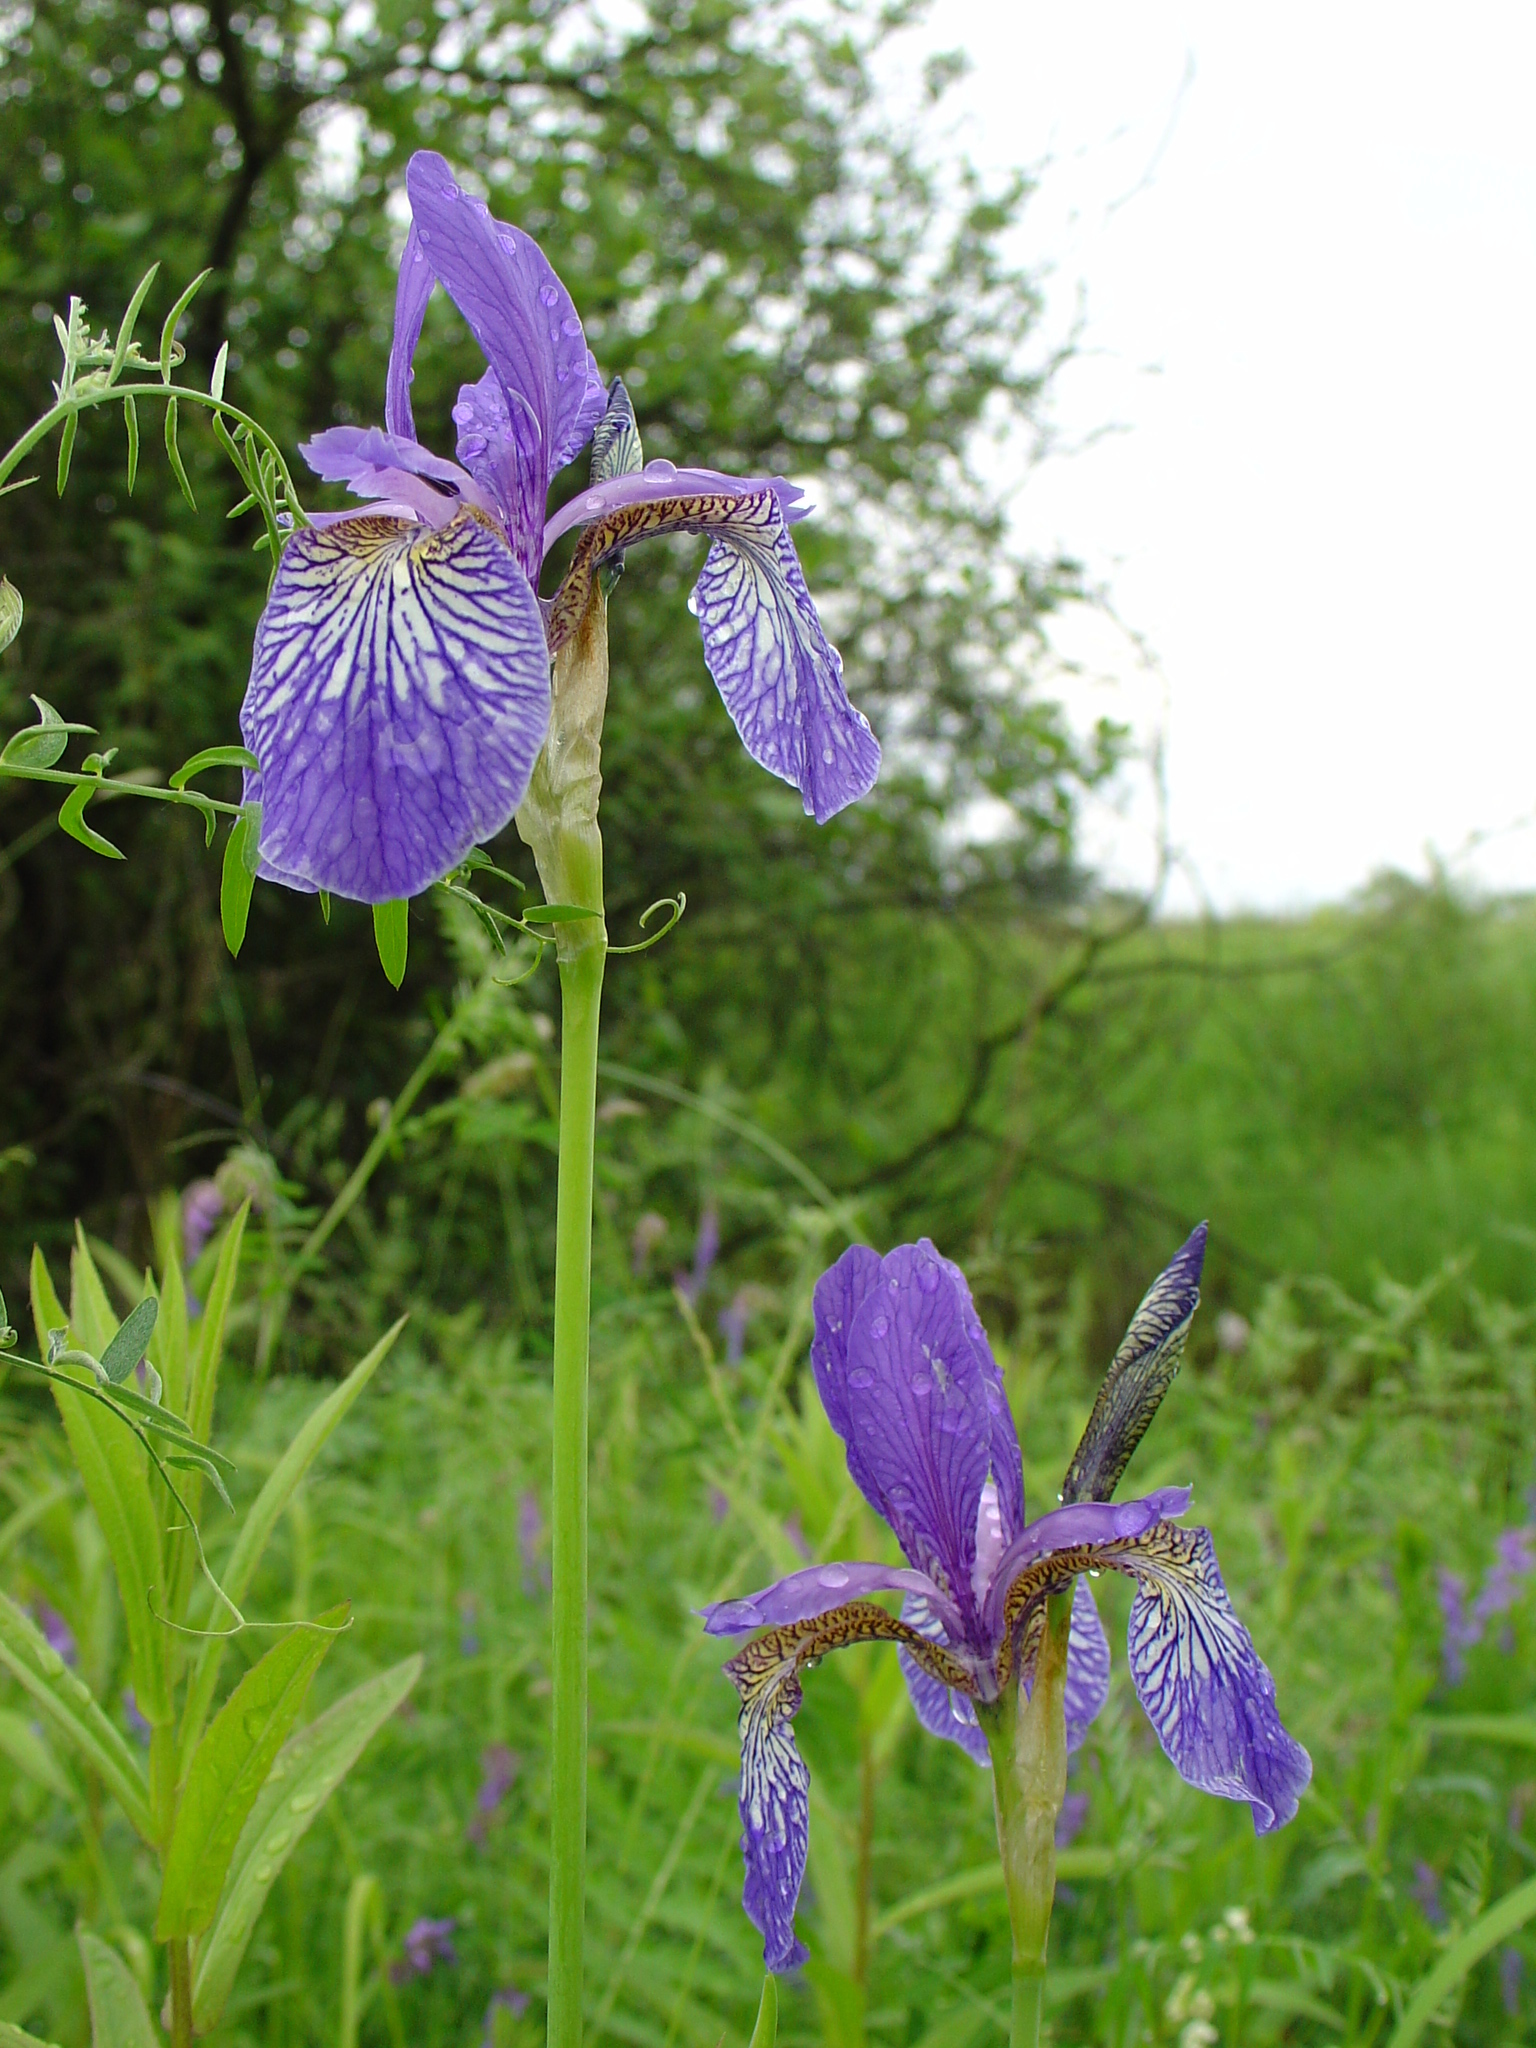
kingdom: Plantae
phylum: Tracheophyta
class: Liliopsida
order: Asparagales
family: Iridaceae
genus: Iris
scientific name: Iris sibirica
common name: Siberian iris
